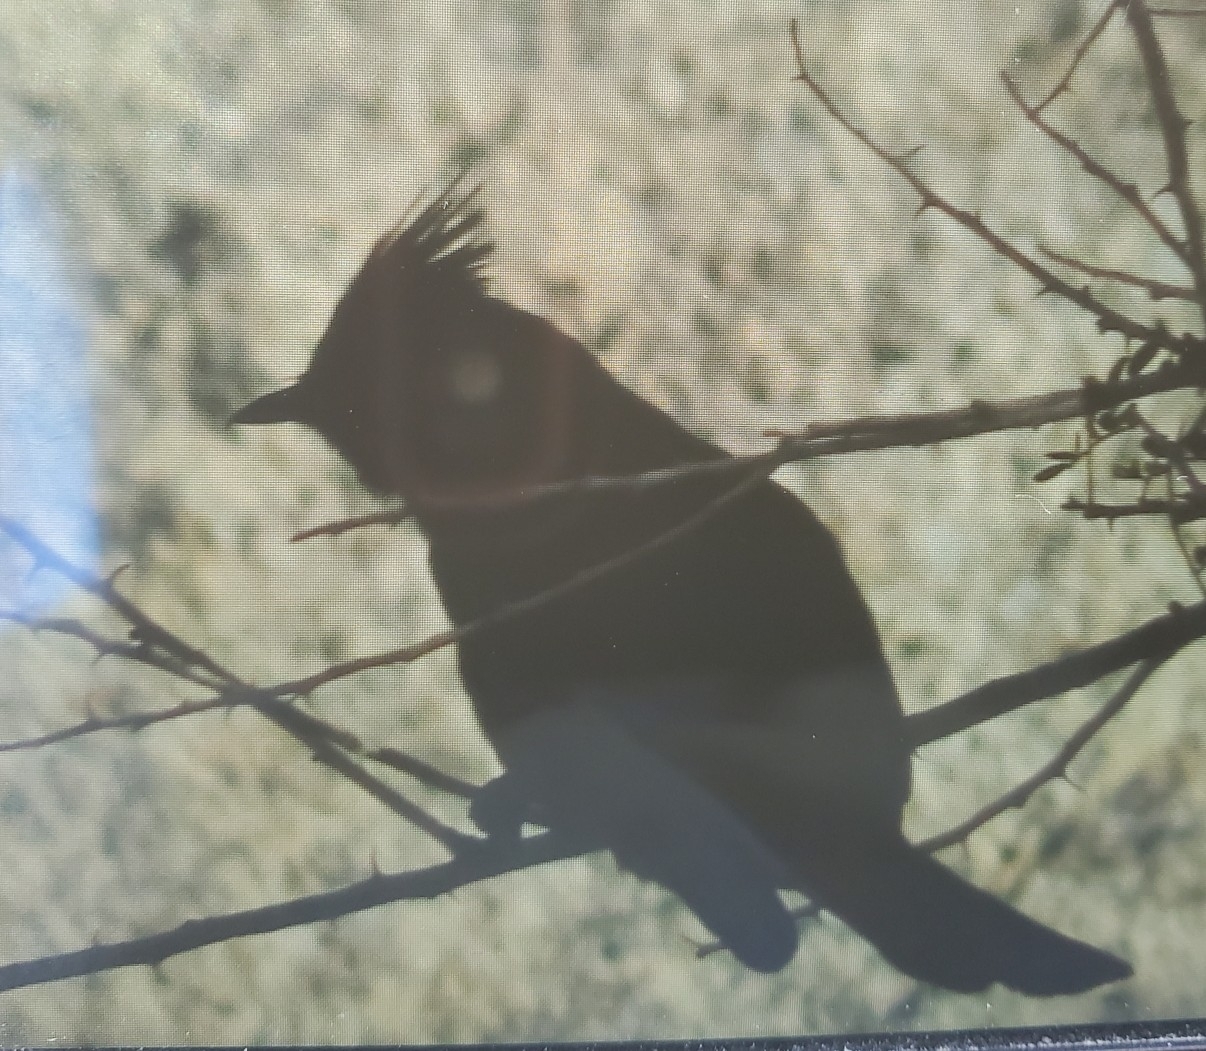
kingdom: Animalia
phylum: Chordata
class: Aves
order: Passeriformes
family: Ptilogonatidae
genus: Phainopepla
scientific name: Phainopepla nitens
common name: Phainopepla
